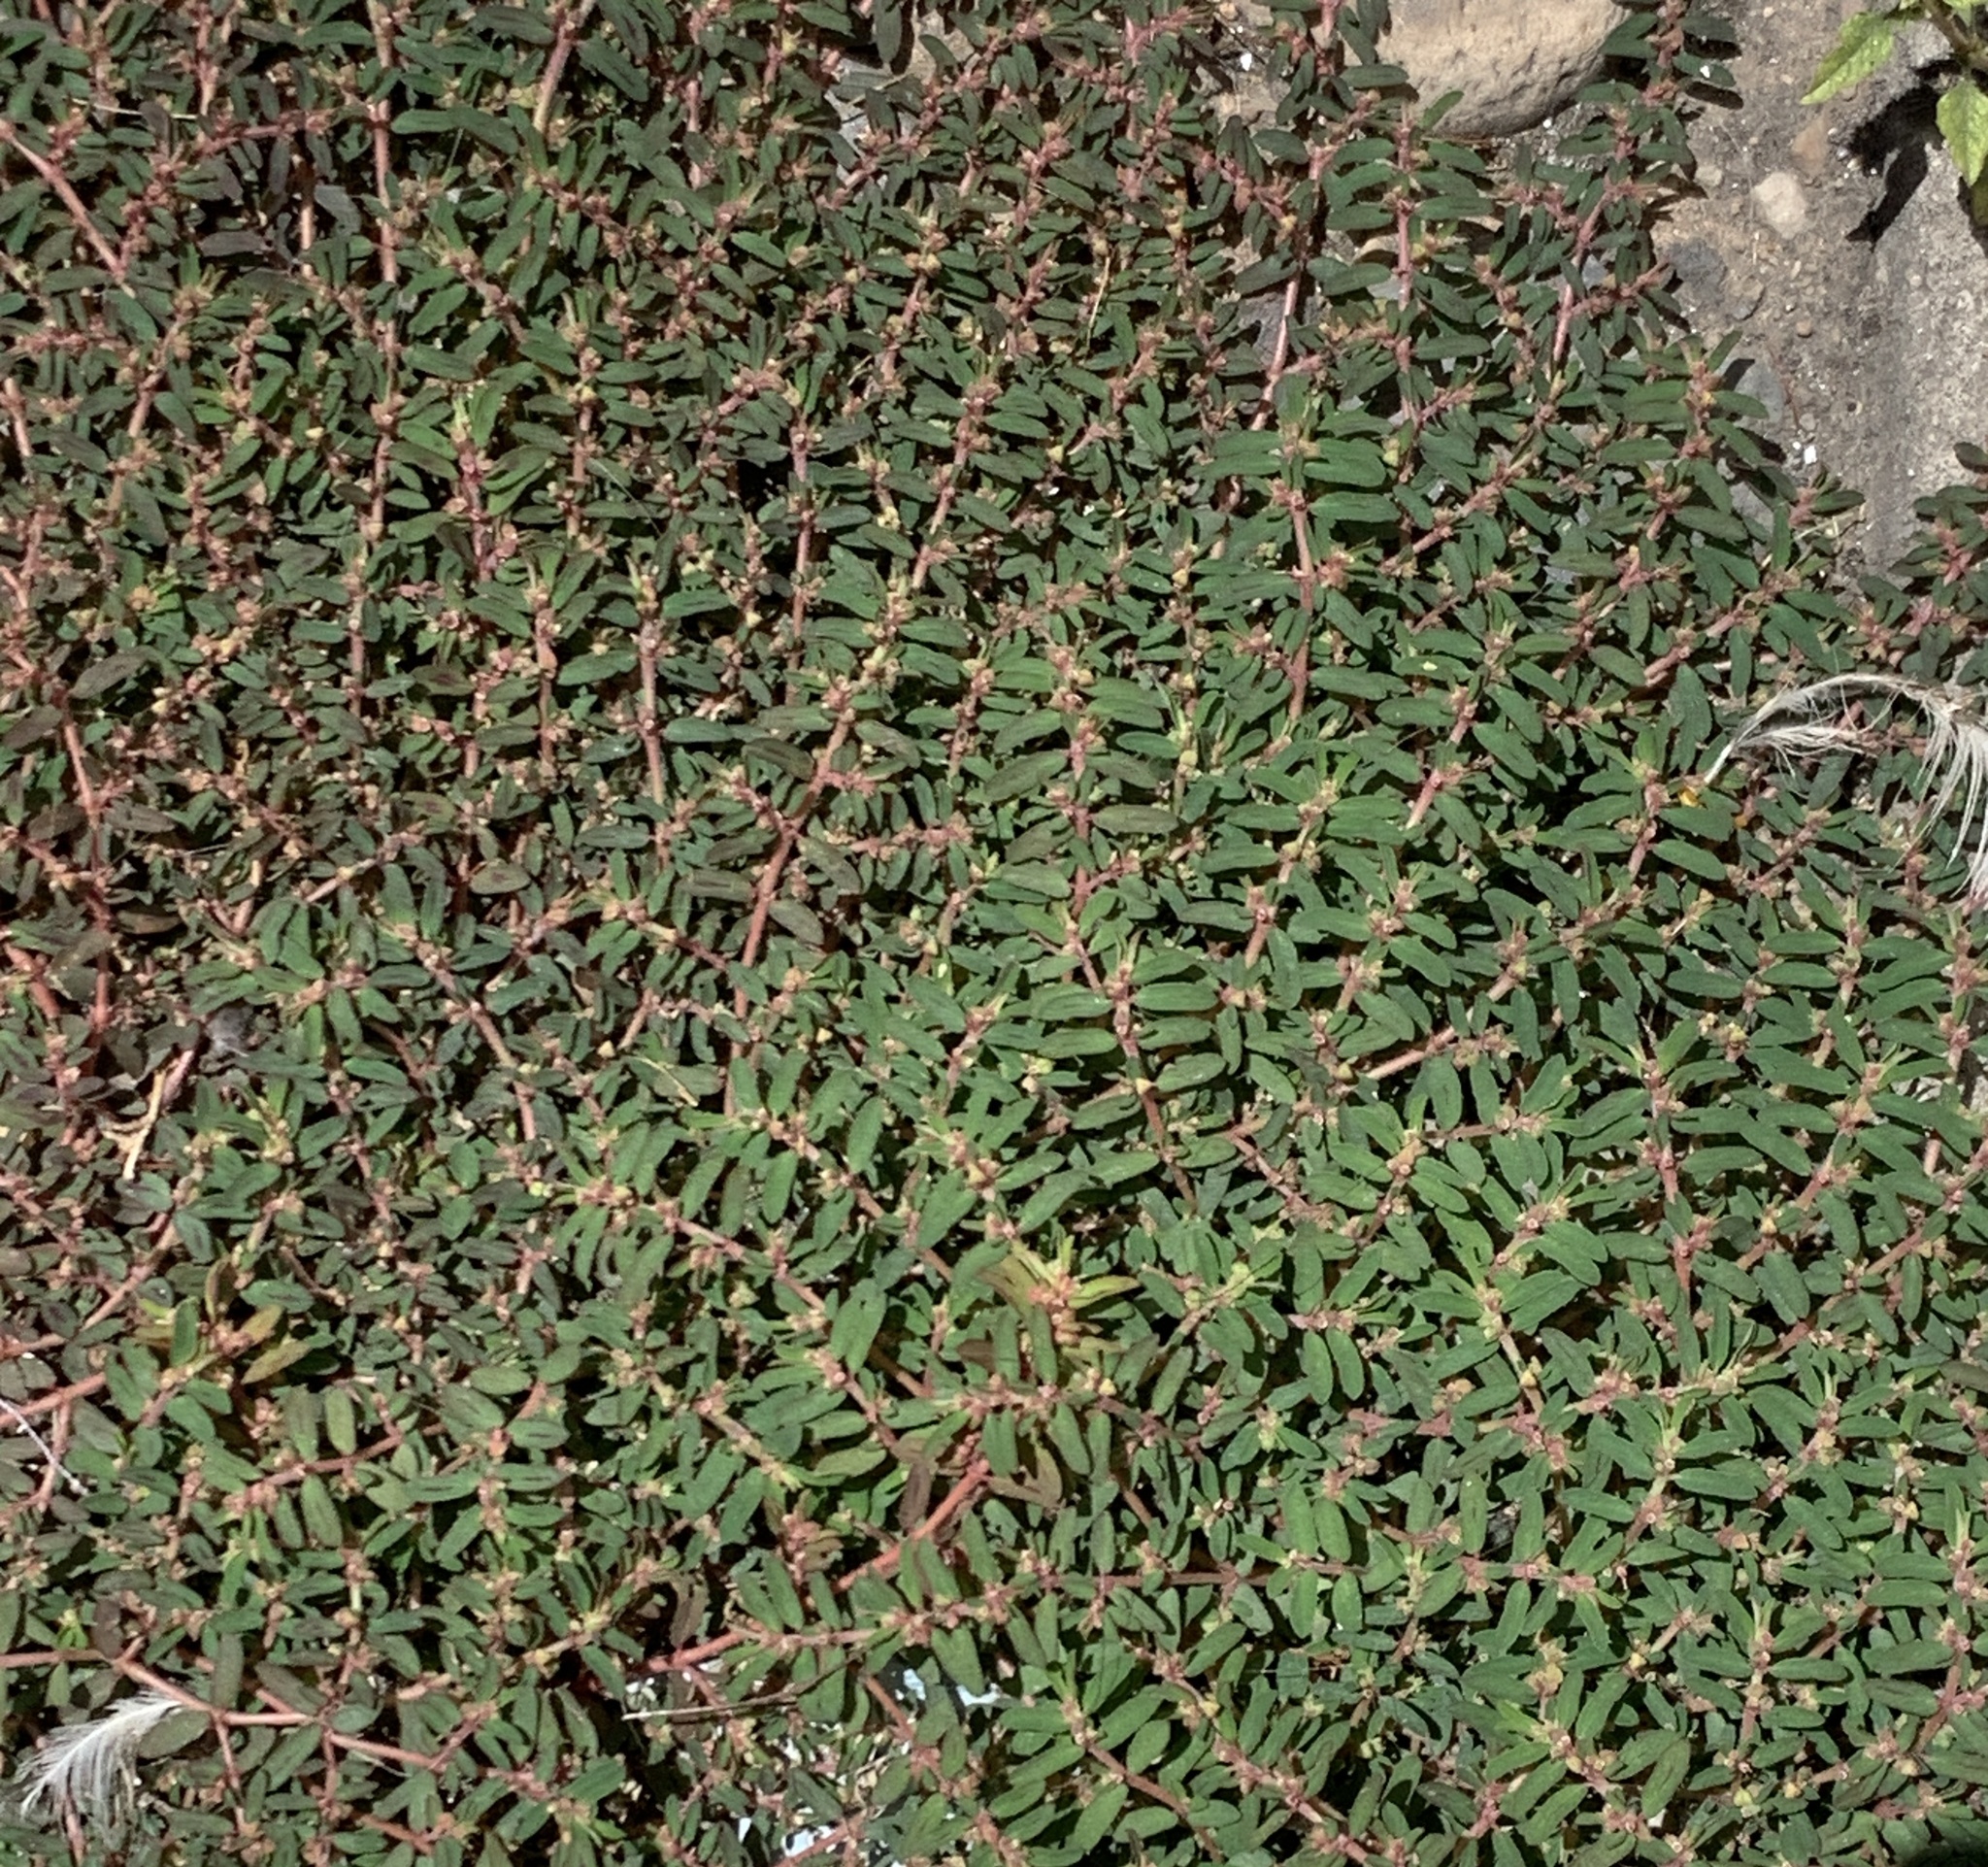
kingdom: Plantae
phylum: Tracheophyta
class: Magnoliopsida
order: Malpighiales
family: Euphorbiaceae
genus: Euphorbia
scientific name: Euphorbia maculata
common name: Spotted spurge
